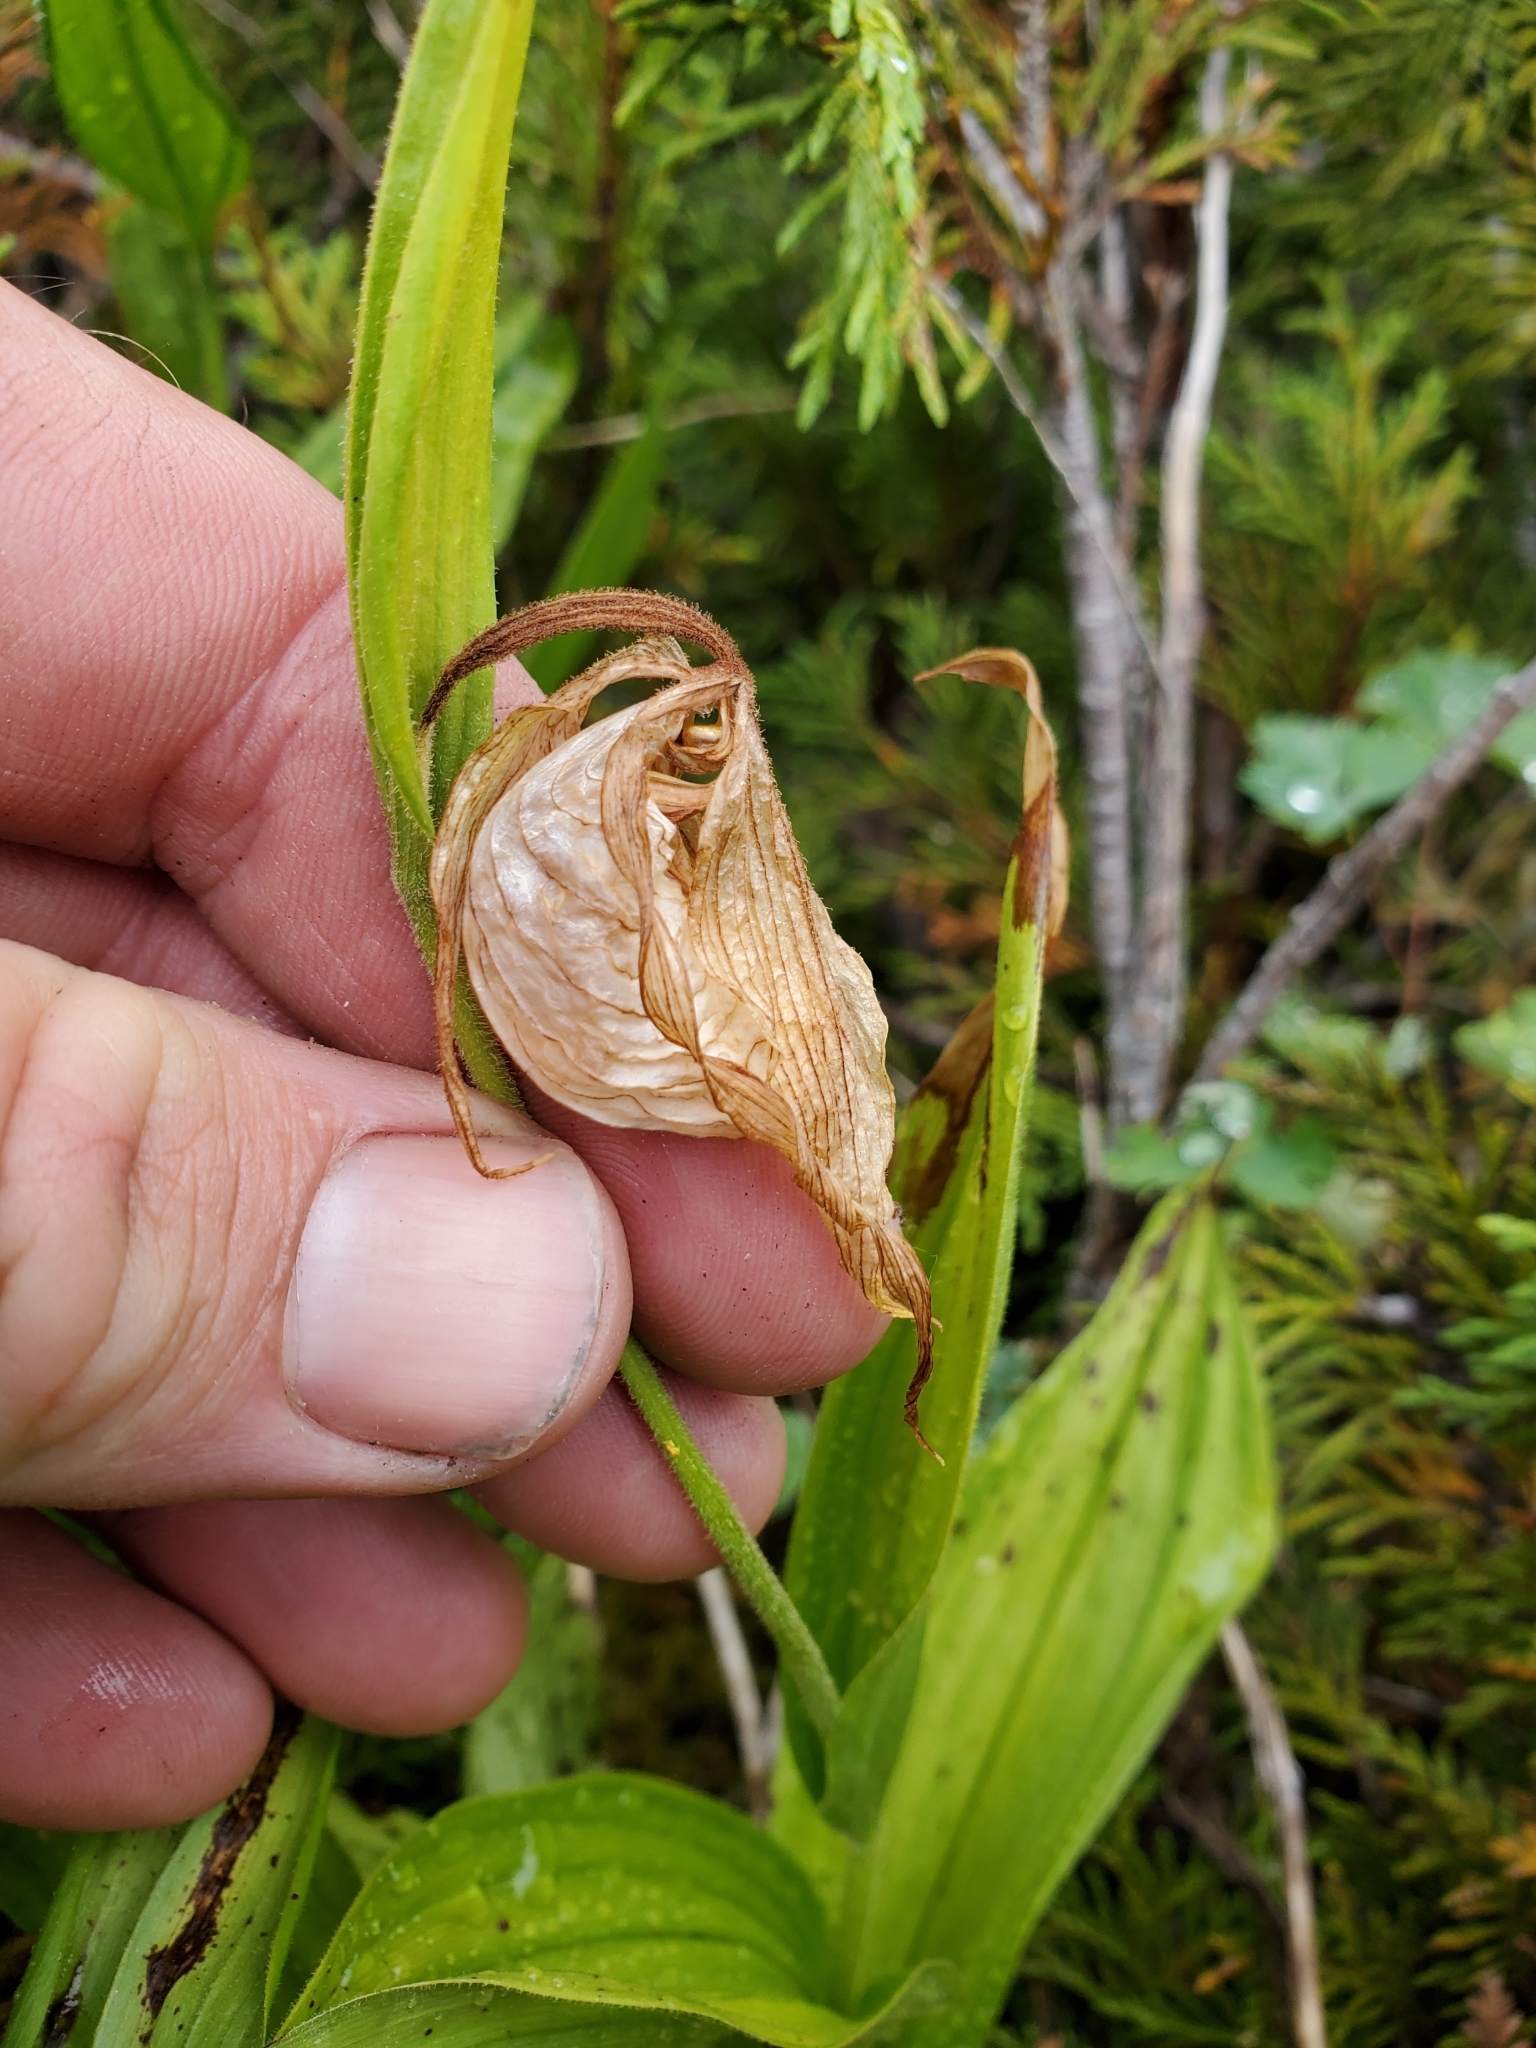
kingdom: Plantae
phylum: Tracheophyta
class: Liliopsida
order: Asparagales
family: Orchidaceae
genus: Cypripedium
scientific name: Cypripedium montanum
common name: Mountain lady's-slipper
